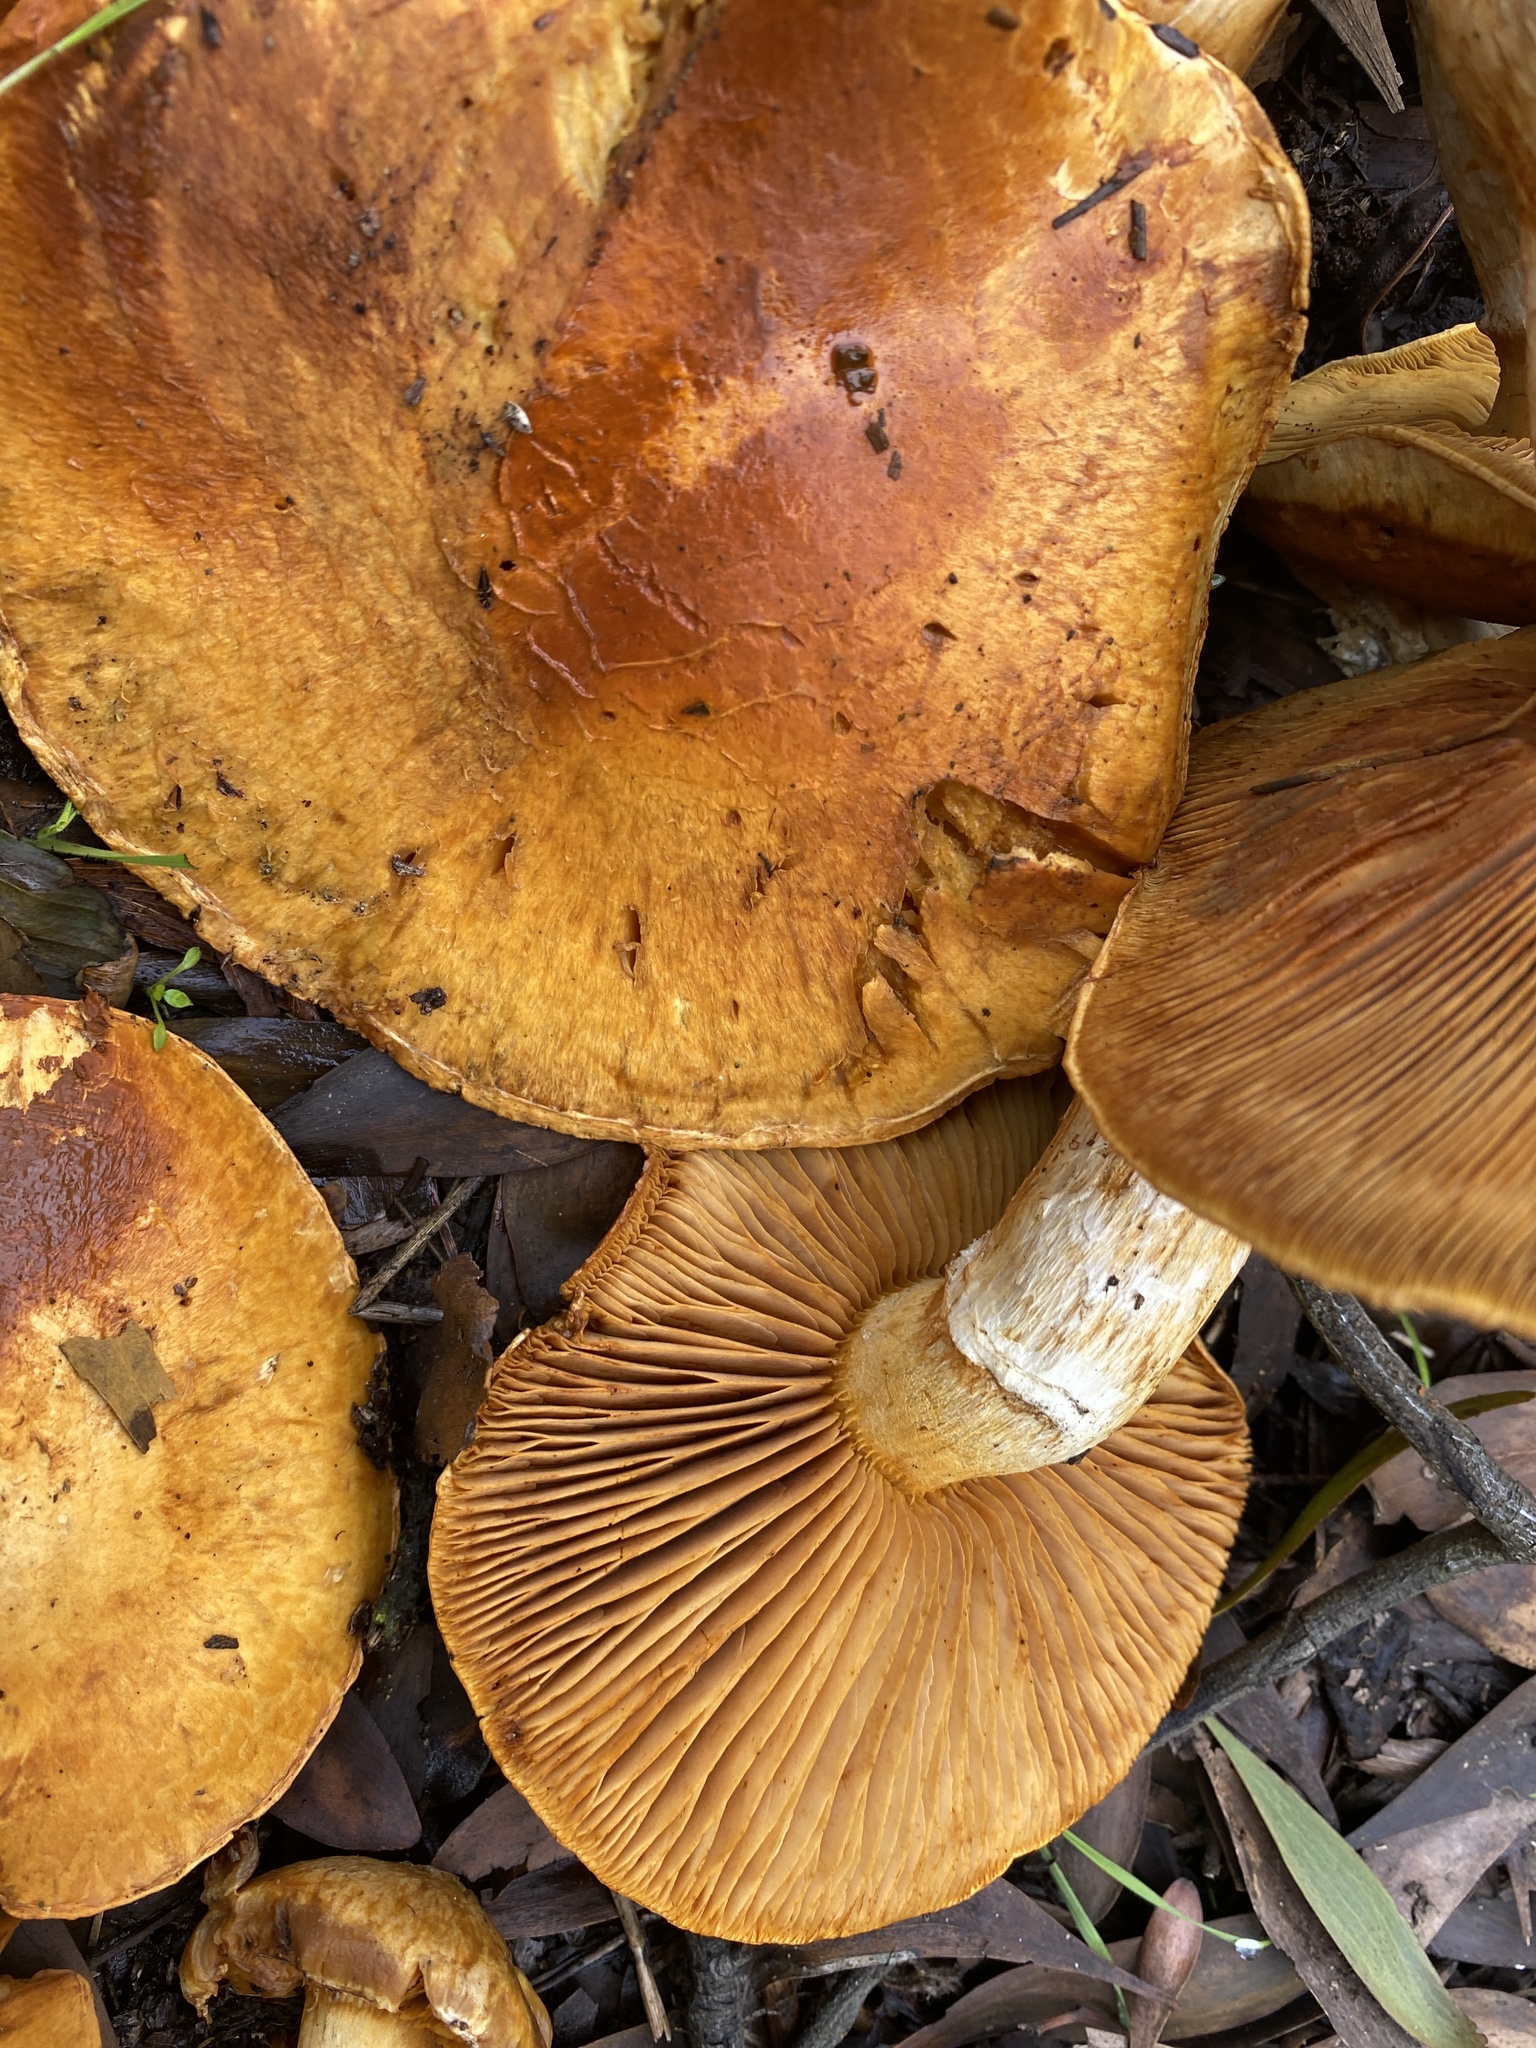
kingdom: Fungi
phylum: Basidiomycota
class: Agaricomycetes
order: Agaricales
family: Hymenogastraceae
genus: Gymnopilus
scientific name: Gymnopilus ventricosus
